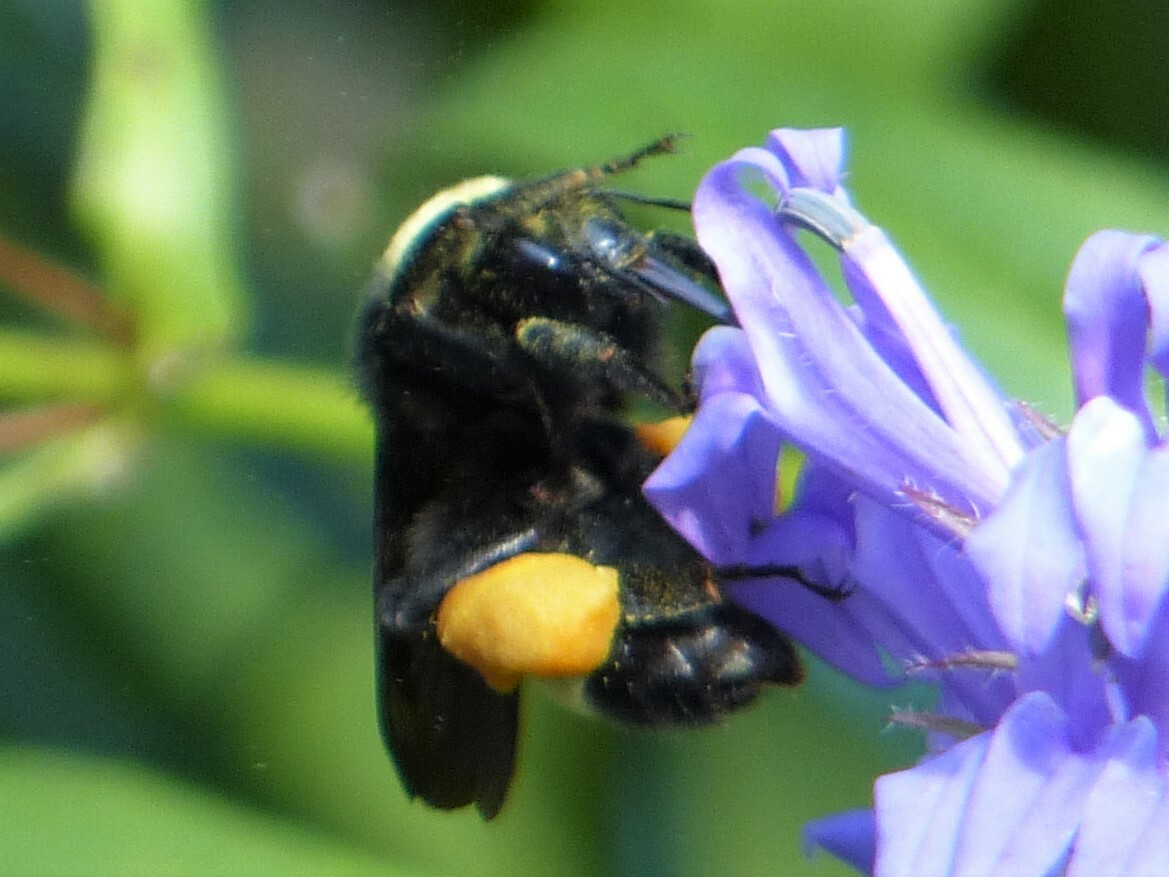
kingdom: Animalia
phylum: Arthropoda
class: Insecta
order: Hymenoptera
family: Apidae
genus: Bombus
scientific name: Bombus pensylvanicus
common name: Bumble bee
